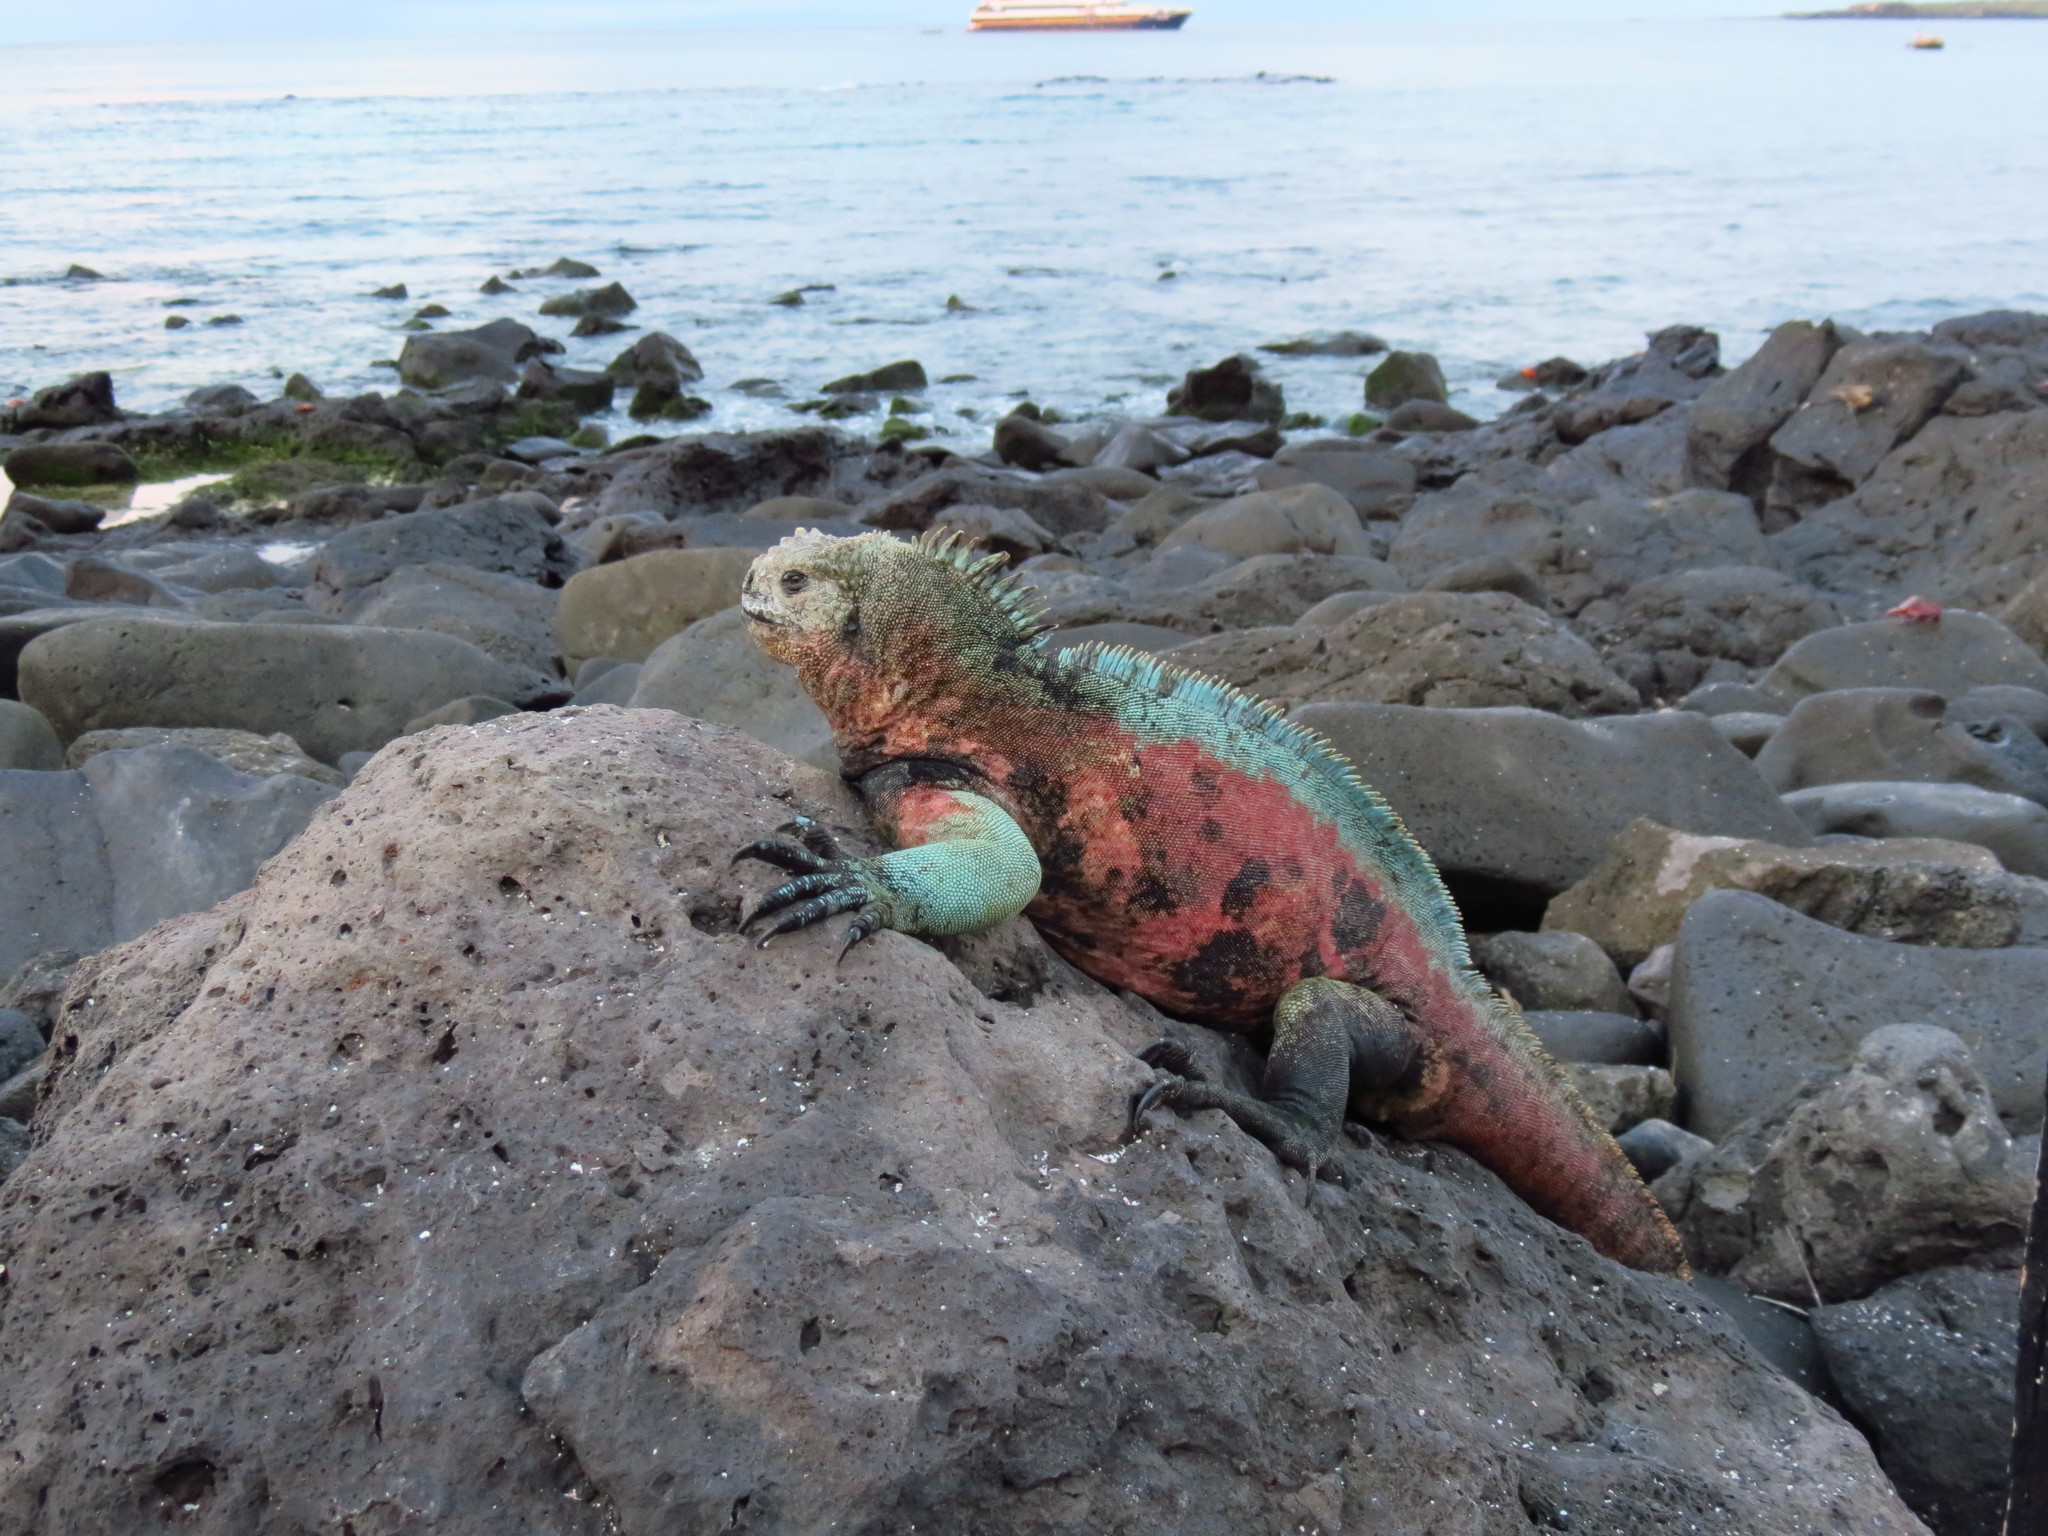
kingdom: Animalia
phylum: Chordata
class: Squamata
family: Iguanidae
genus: Amblyrhynchus
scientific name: Amblyrhynchus cristatus
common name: Marine iguana
